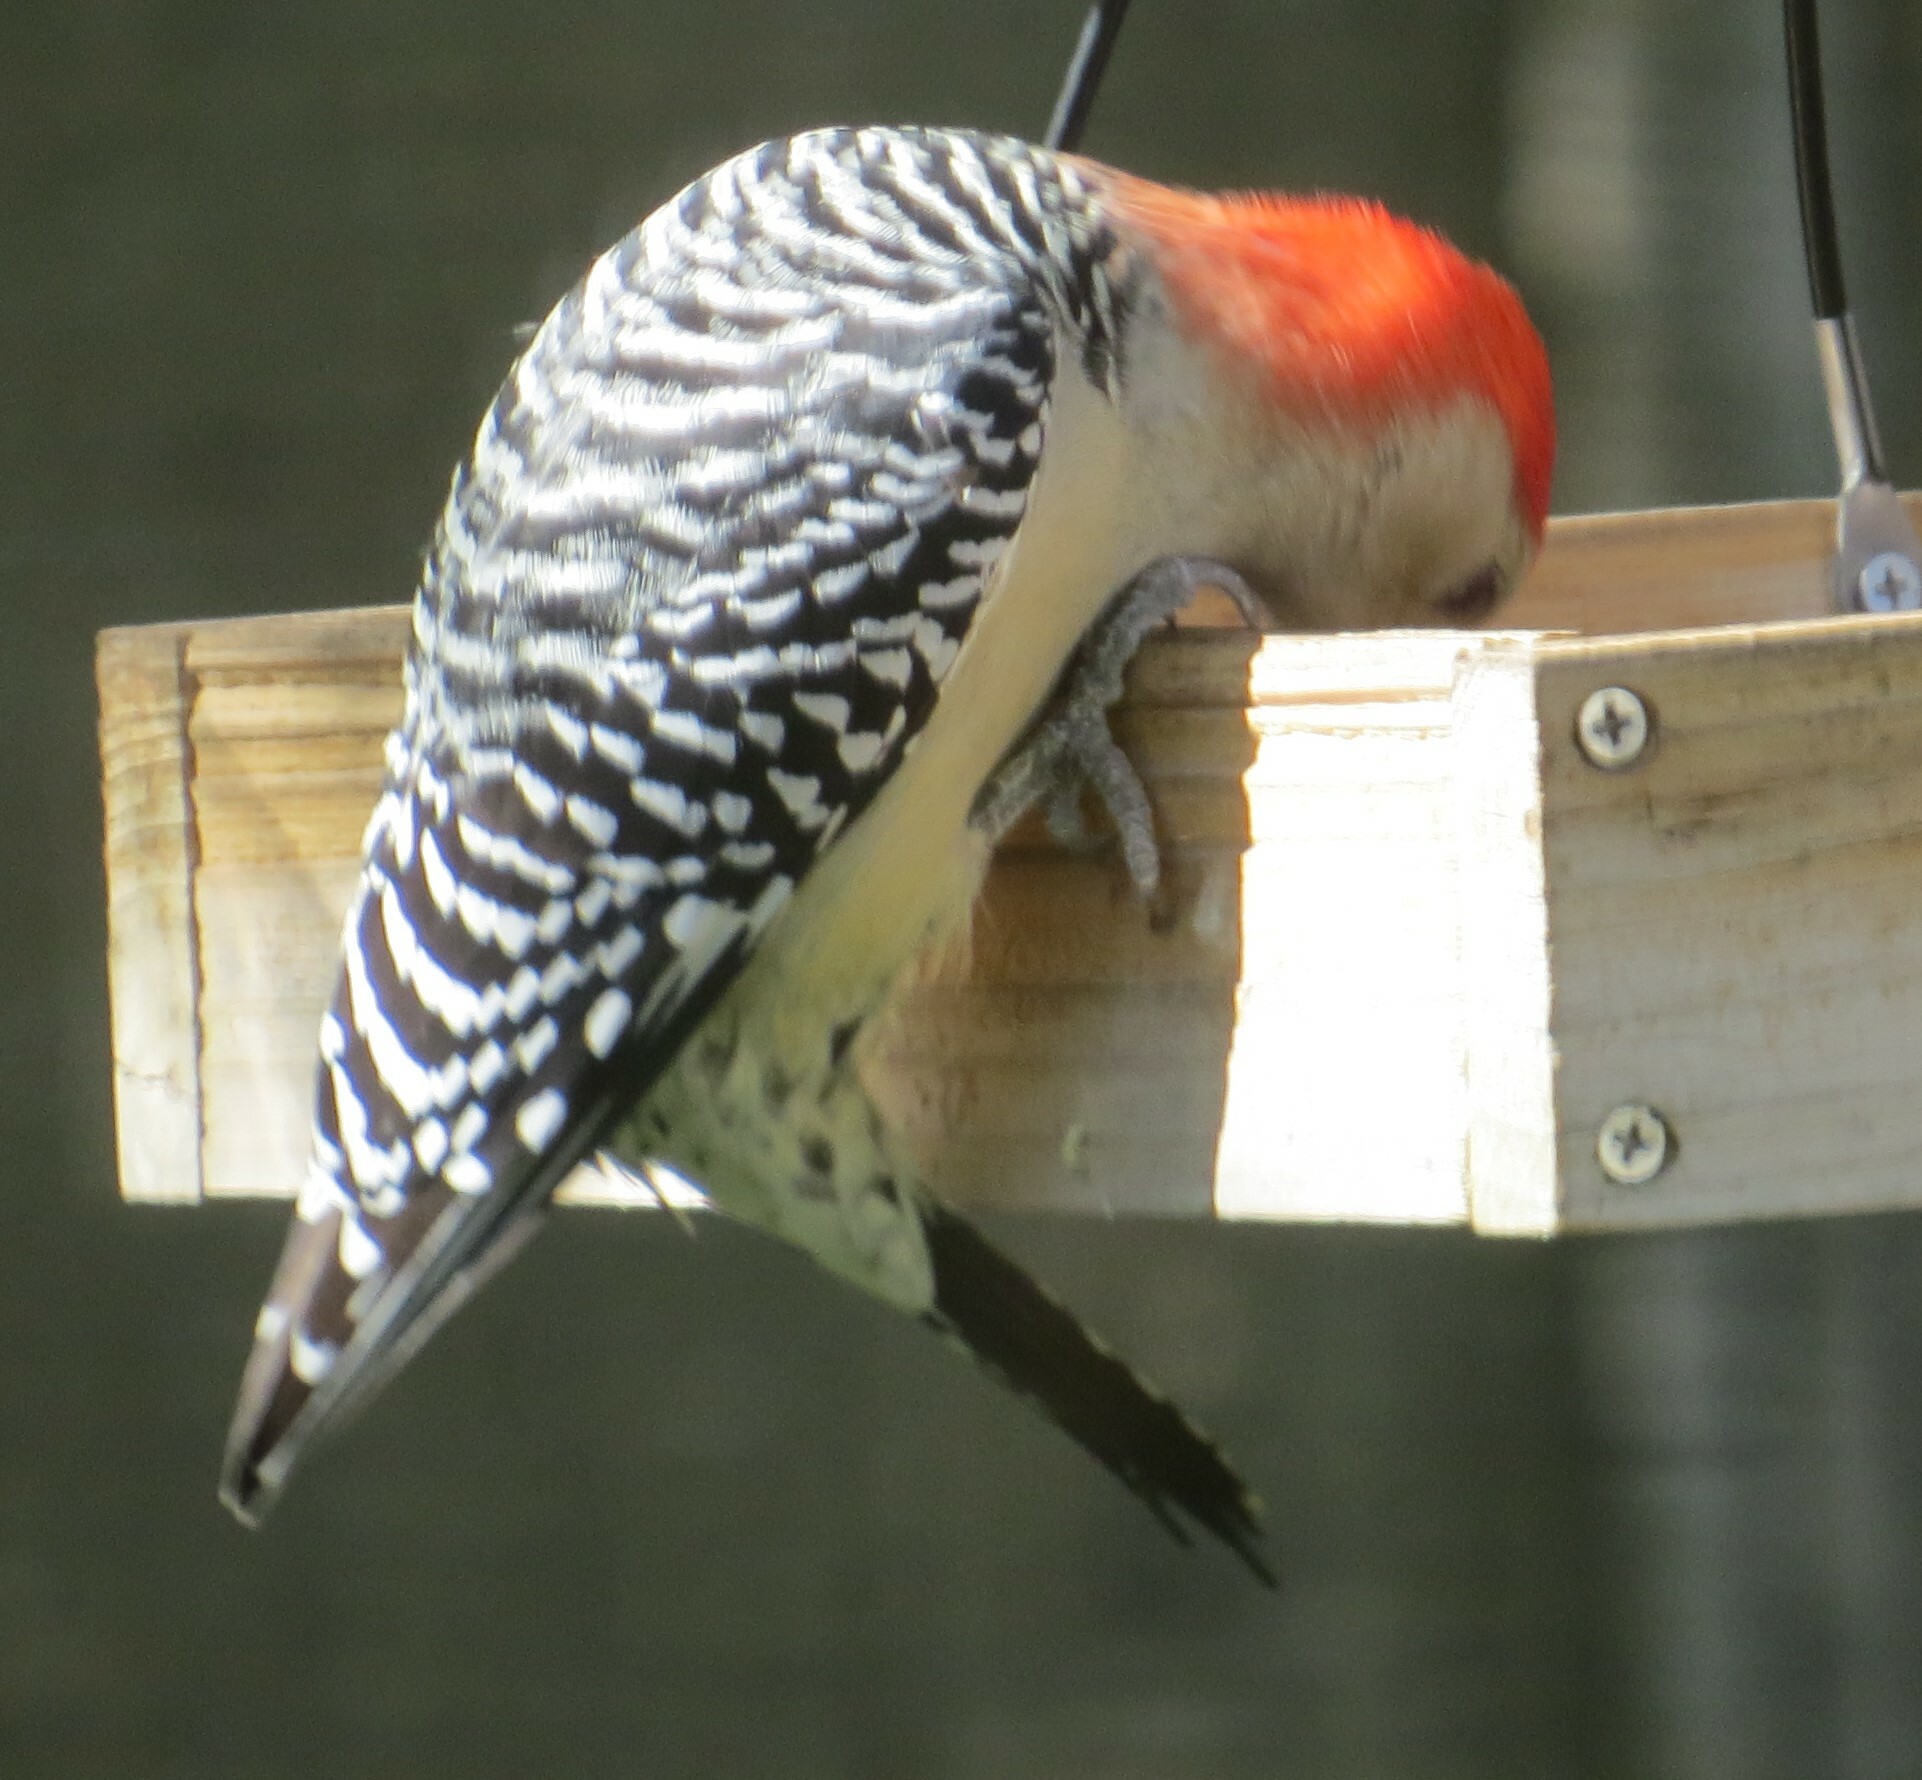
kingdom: Animalia
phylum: Chordata
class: Aves
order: Piciformes
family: Picidae
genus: Melanerpes
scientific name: Melanerpes carolinus
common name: Red-bellied woodpecker
